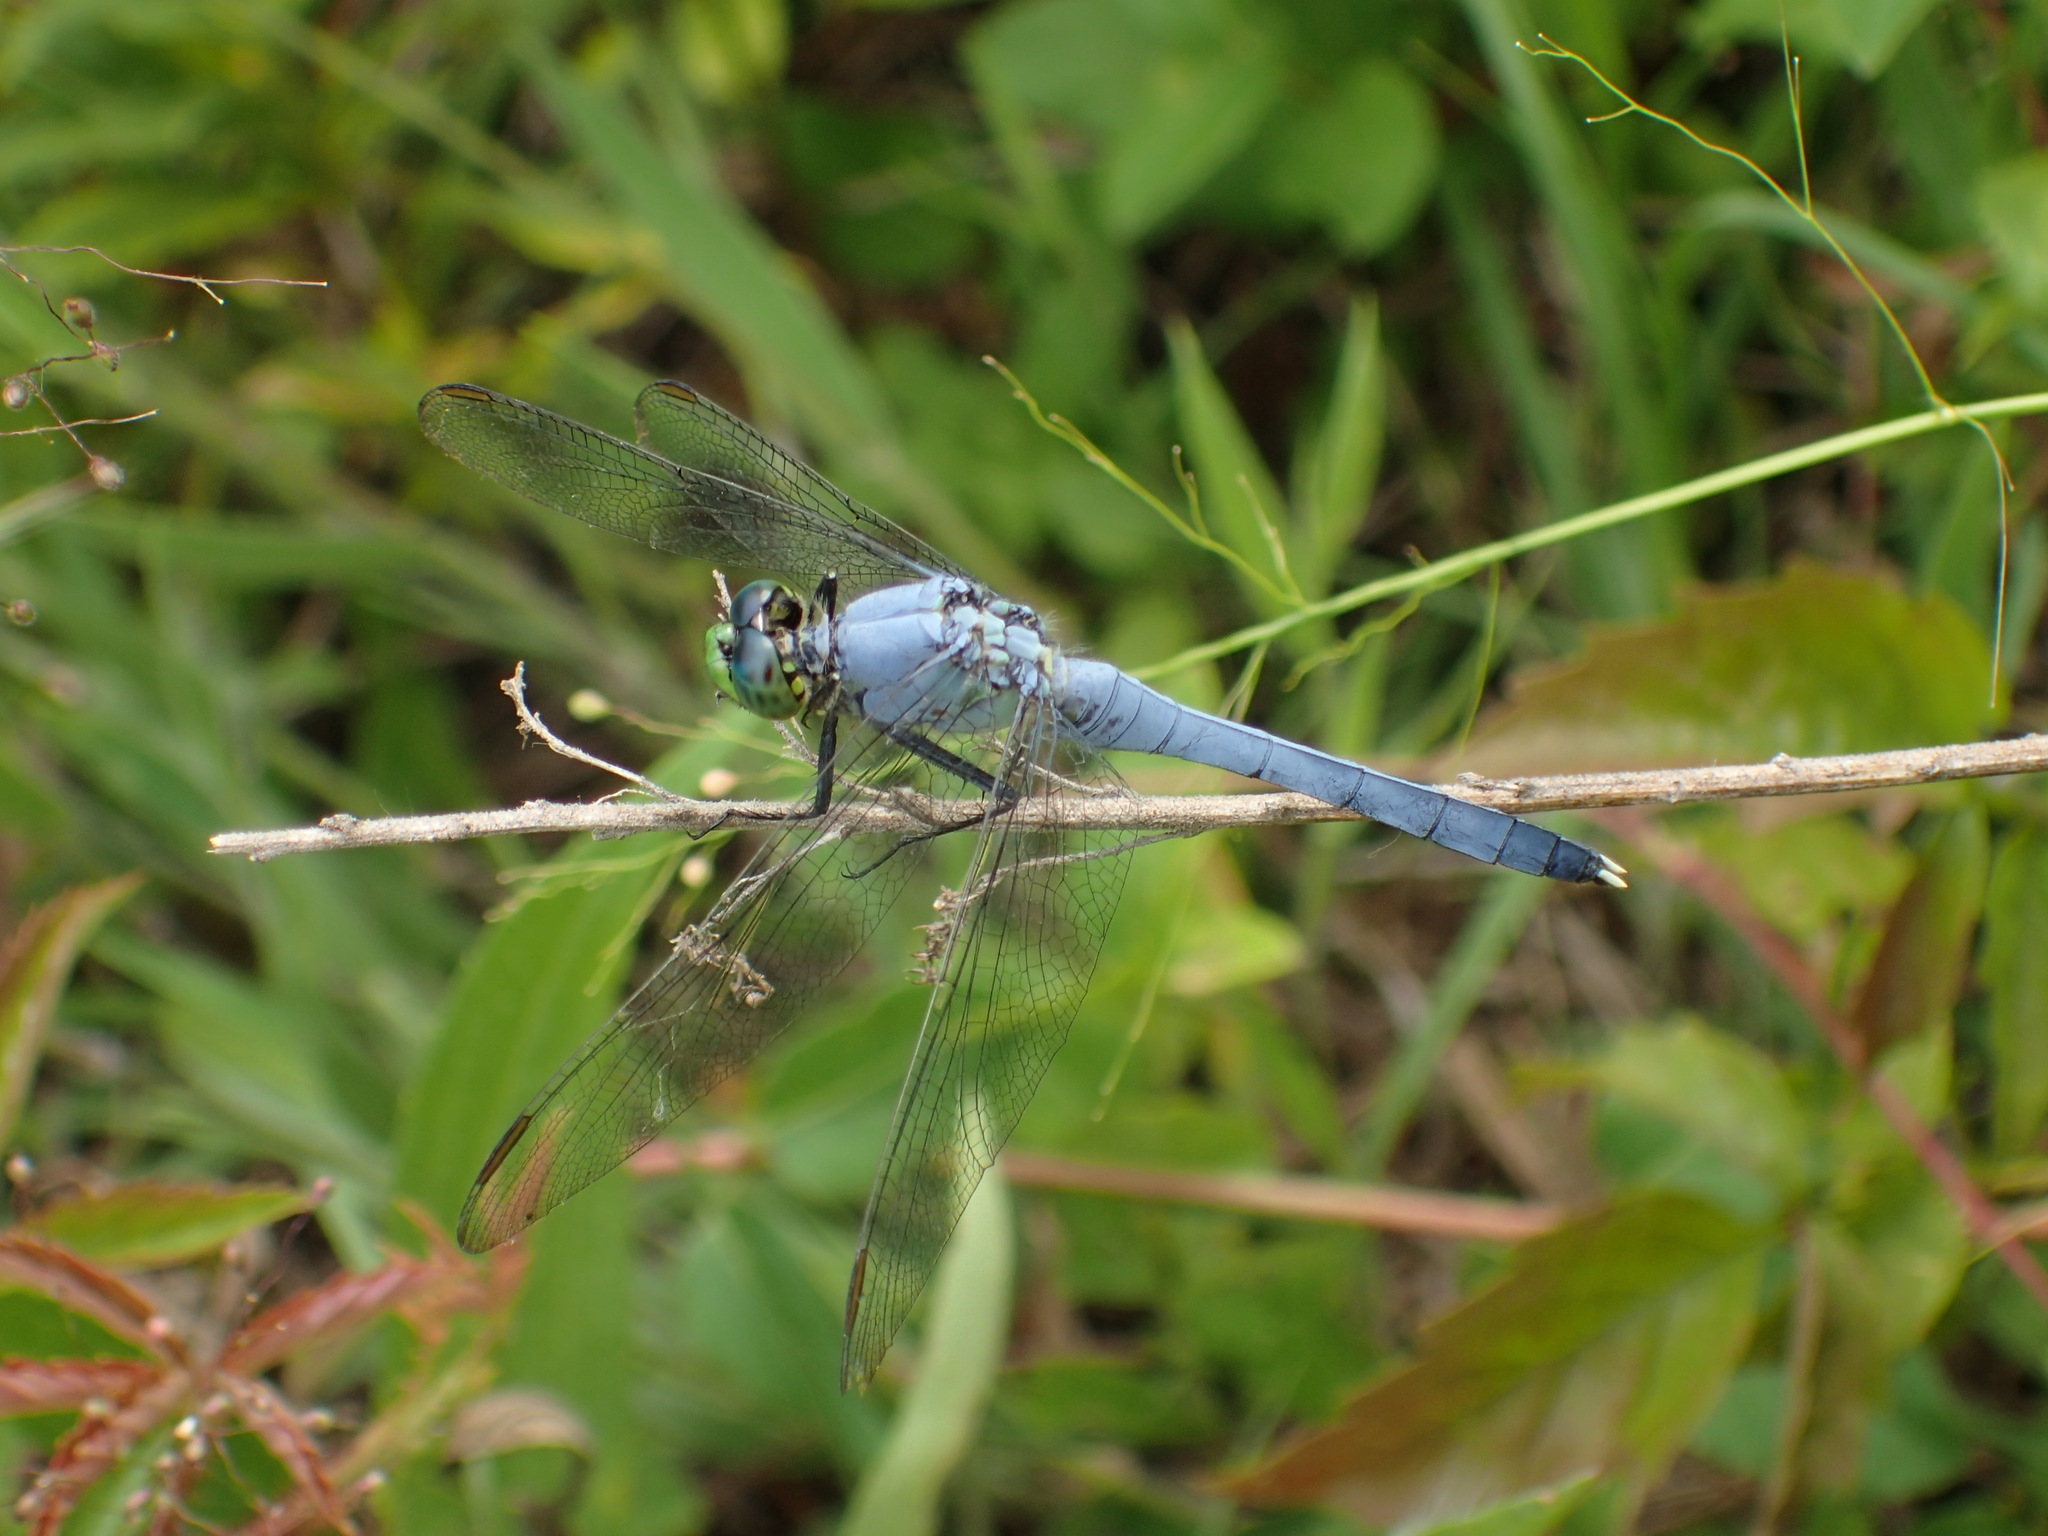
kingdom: Animalia
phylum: Arthropoda
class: Insecta
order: Odonata
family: Libellulidae
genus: Erythemis
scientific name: Erythemis simplicicollis
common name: Eastern pondhawk
